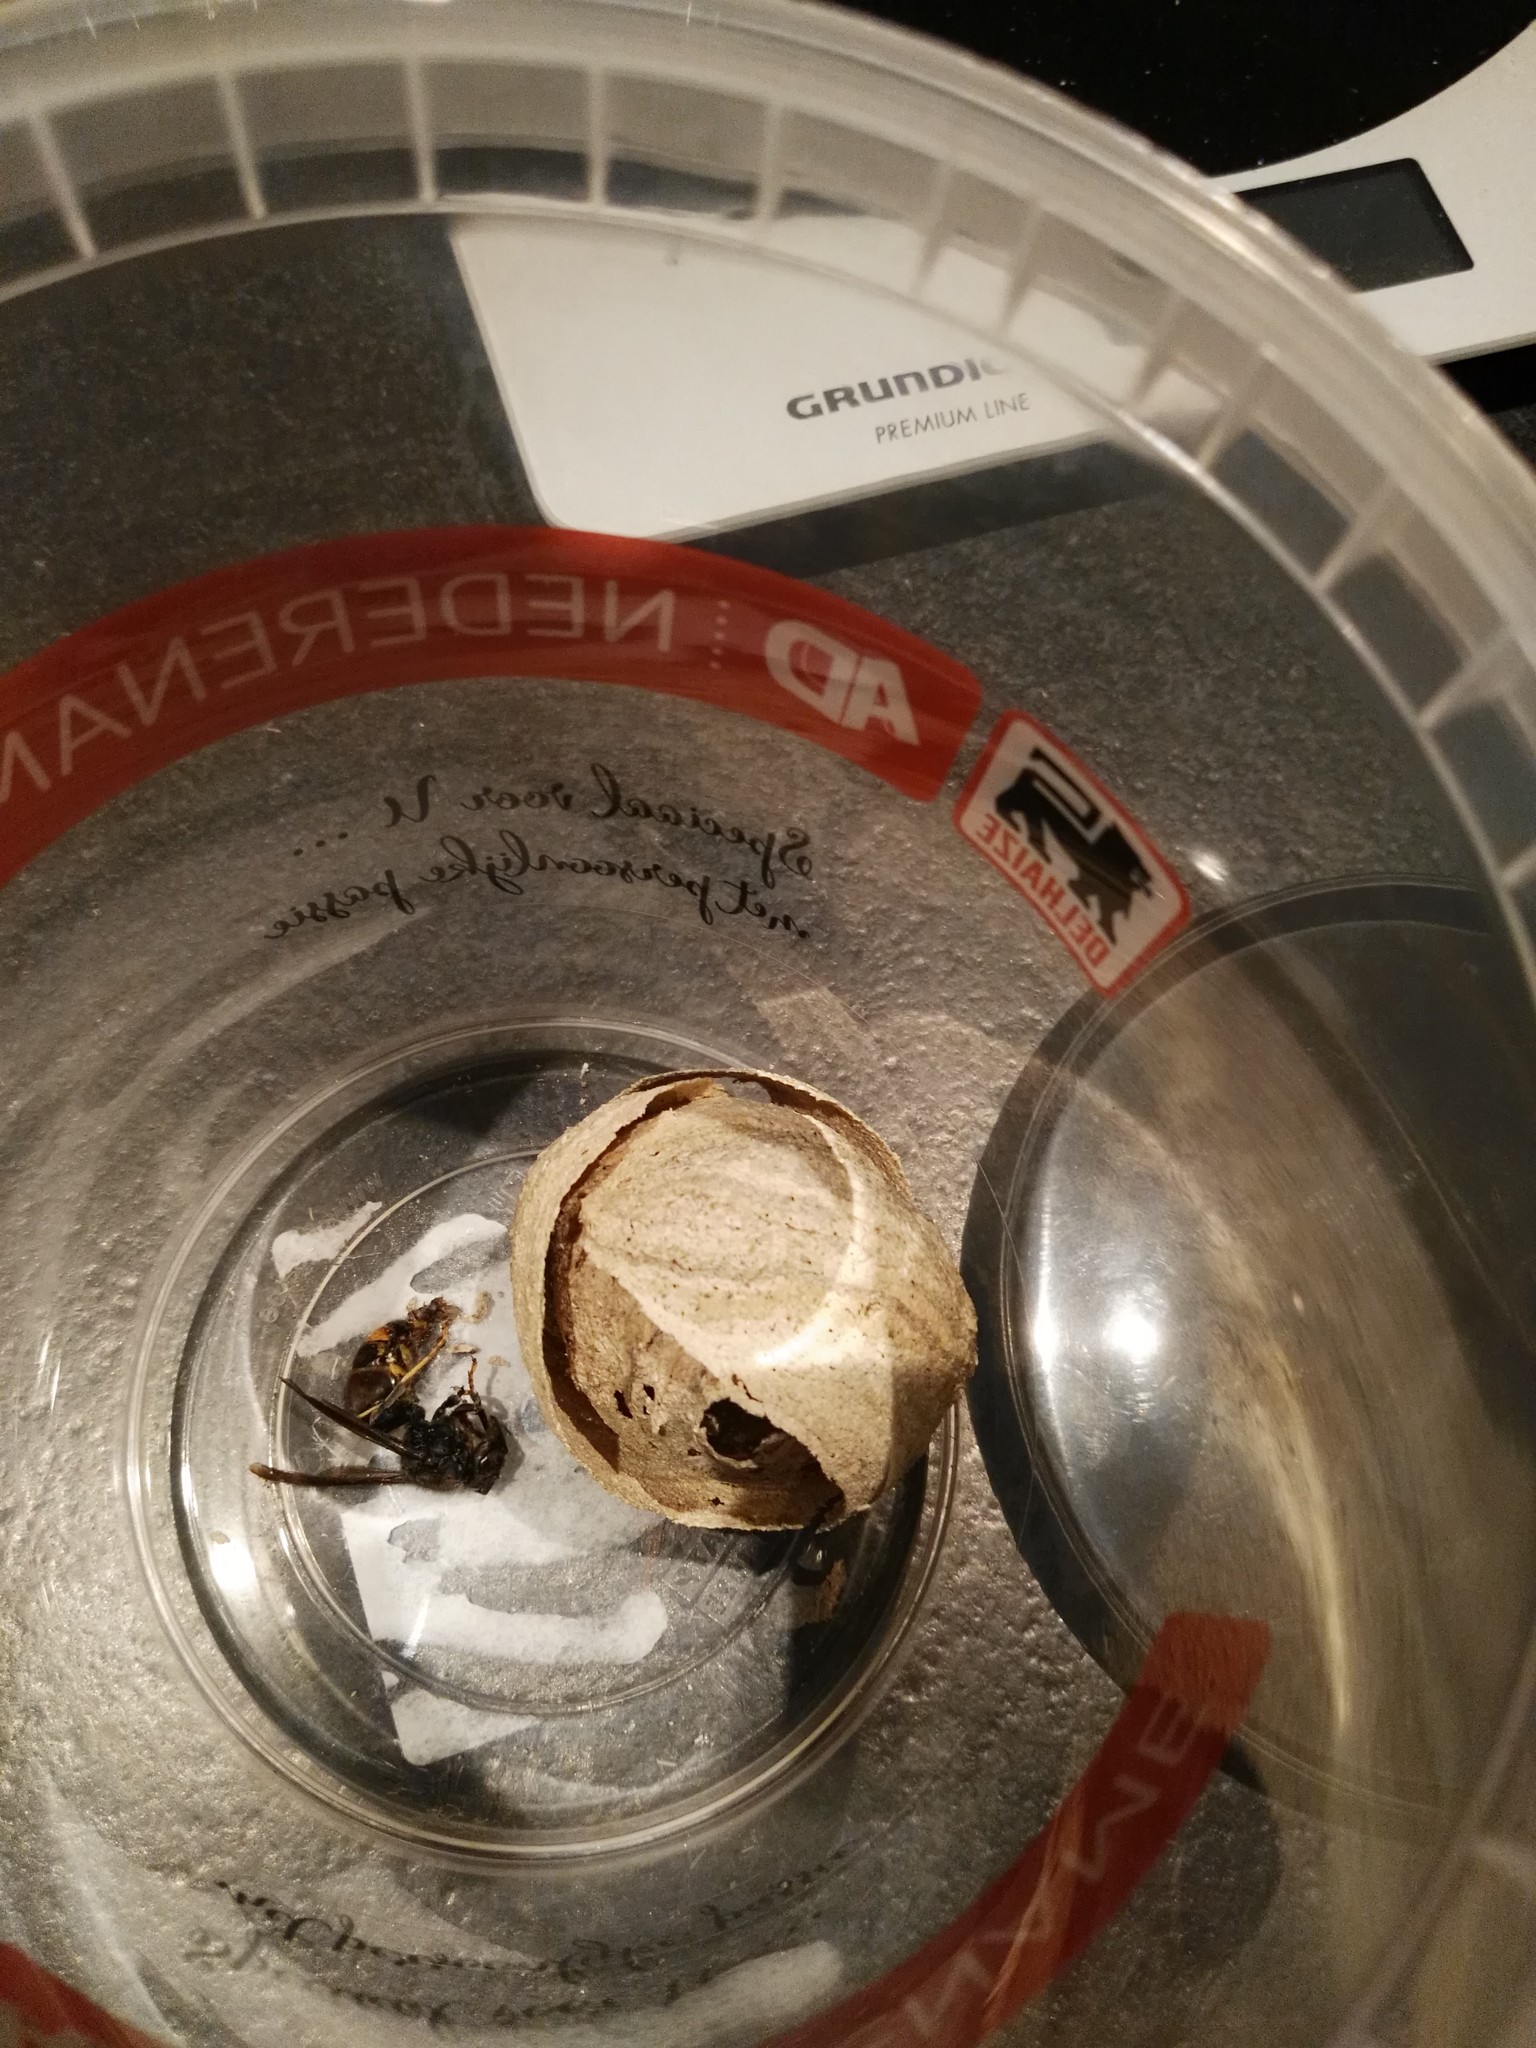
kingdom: Animalia
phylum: Arthropoda
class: Insecta
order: Hymenoptera
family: Vespidae
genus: Vespa
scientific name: Vespa velutina
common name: Asian hornet
